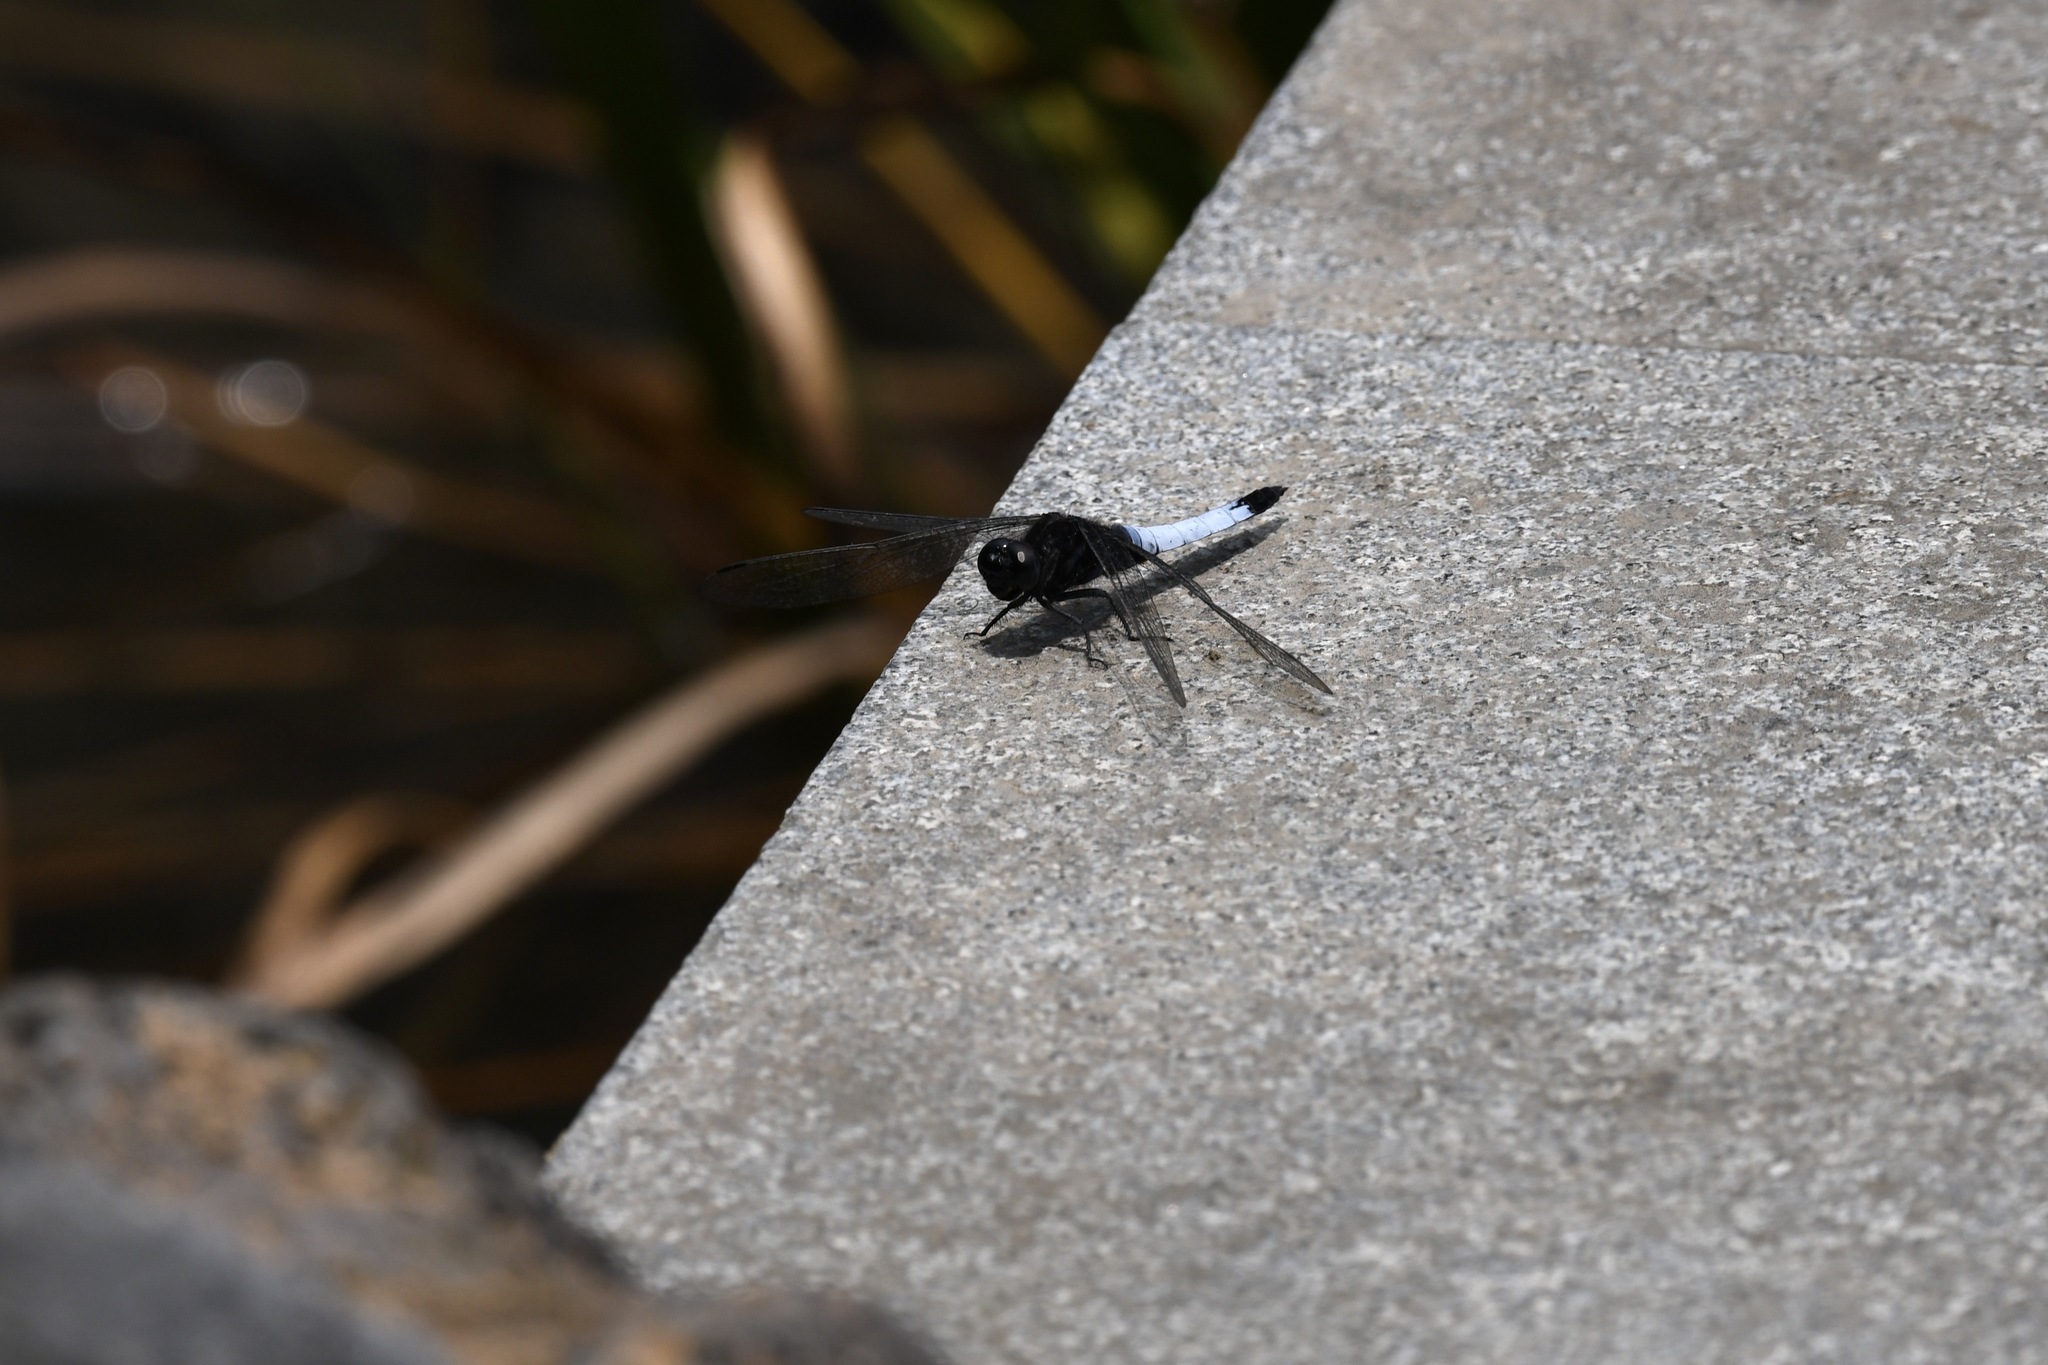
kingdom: Animalia
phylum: Arthropoda
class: Insecta
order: Odonata
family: Libellulidae
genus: Orthetrum
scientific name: Orthetrum triangulare
